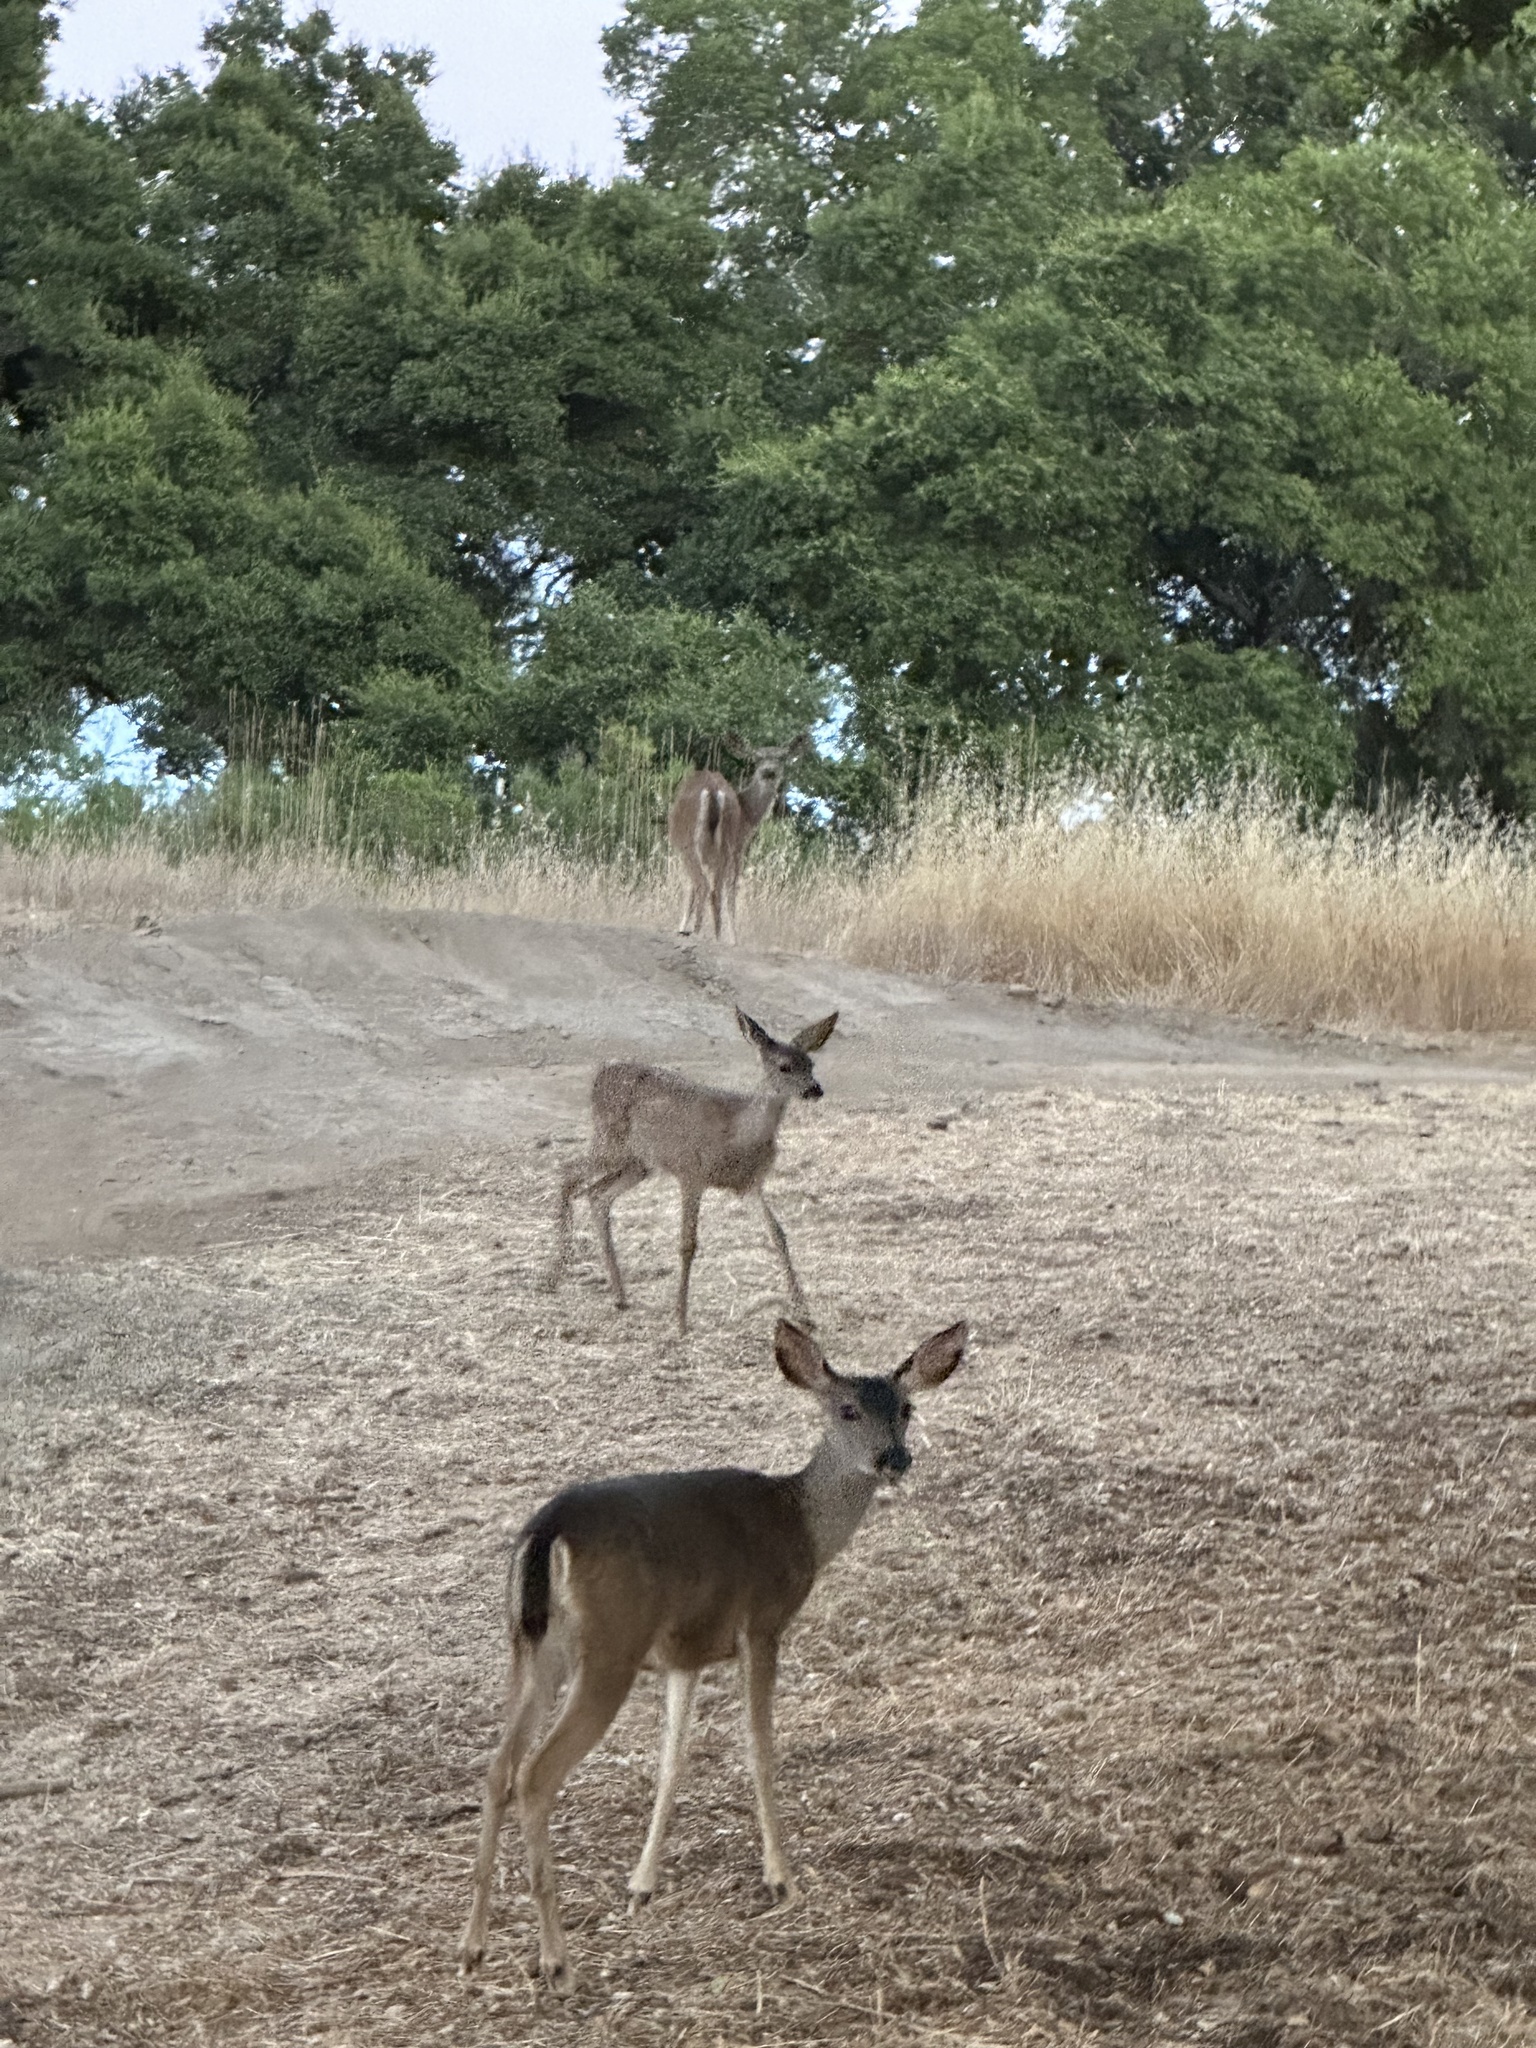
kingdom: Animalia
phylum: Chordata
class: Mammalia
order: Artiodactyla
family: Cervidae
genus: Odocoileus
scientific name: Odocoileus hemionus
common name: Mule deer
